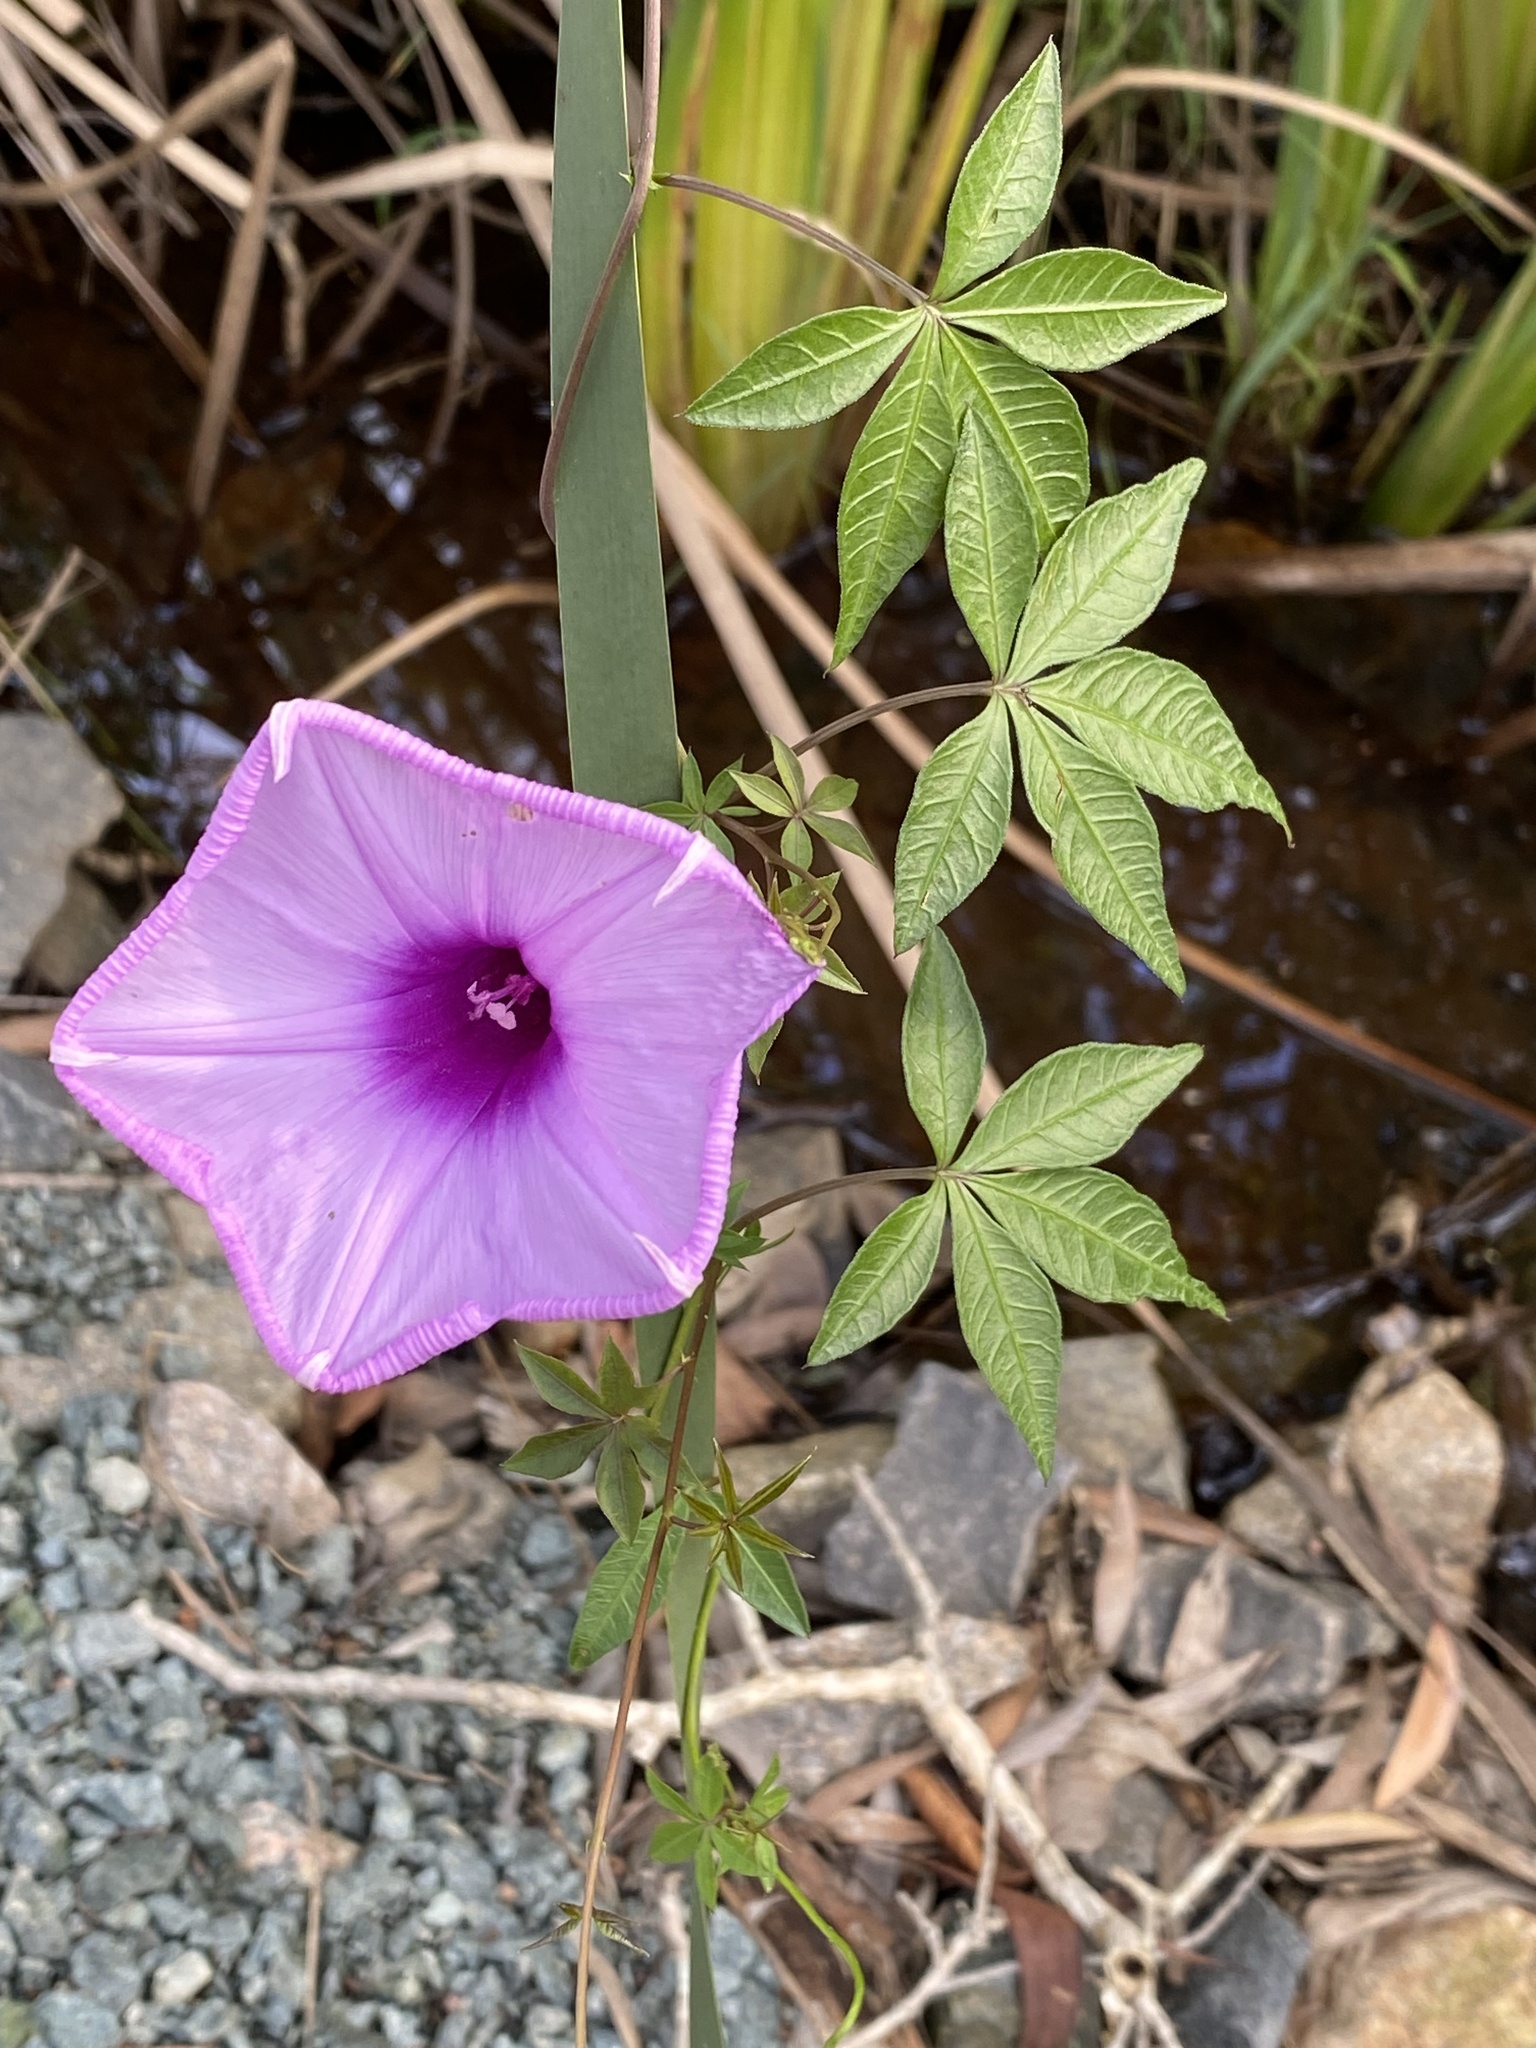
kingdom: Plantae
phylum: Tracheophyta
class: Magnoliopsida
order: Solanales
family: Convolvulaceae
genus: Ipomoea
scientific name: Ipomoea cairica
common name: Mile a minute vine
